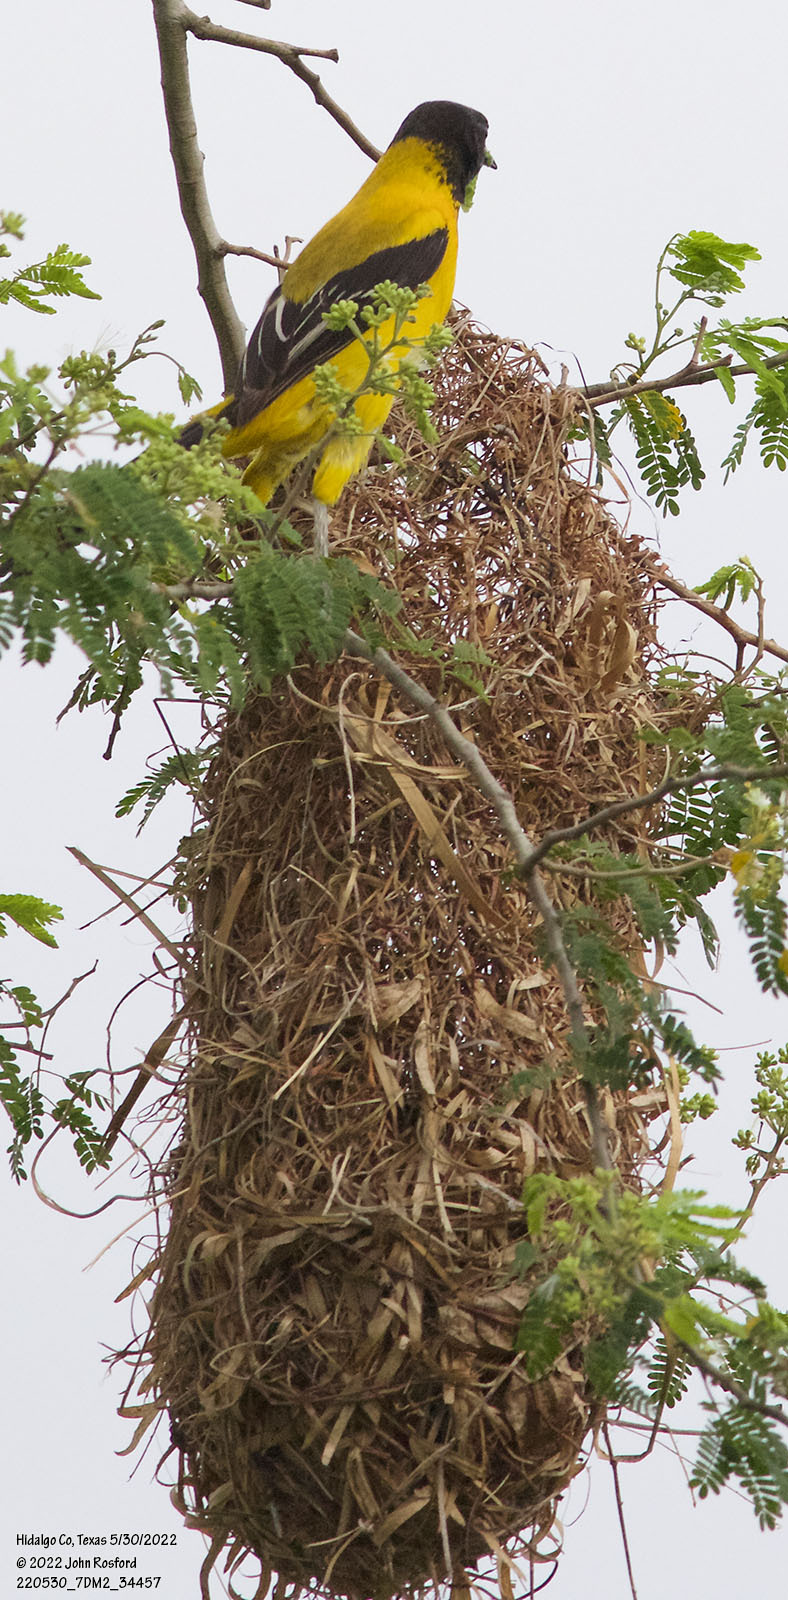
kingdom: Animalia
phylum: Chordata
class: Aves
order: Passeriformes
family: Icteridae
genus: Icterus
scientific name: Icterus graduacauda
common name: Audubon's oriole
